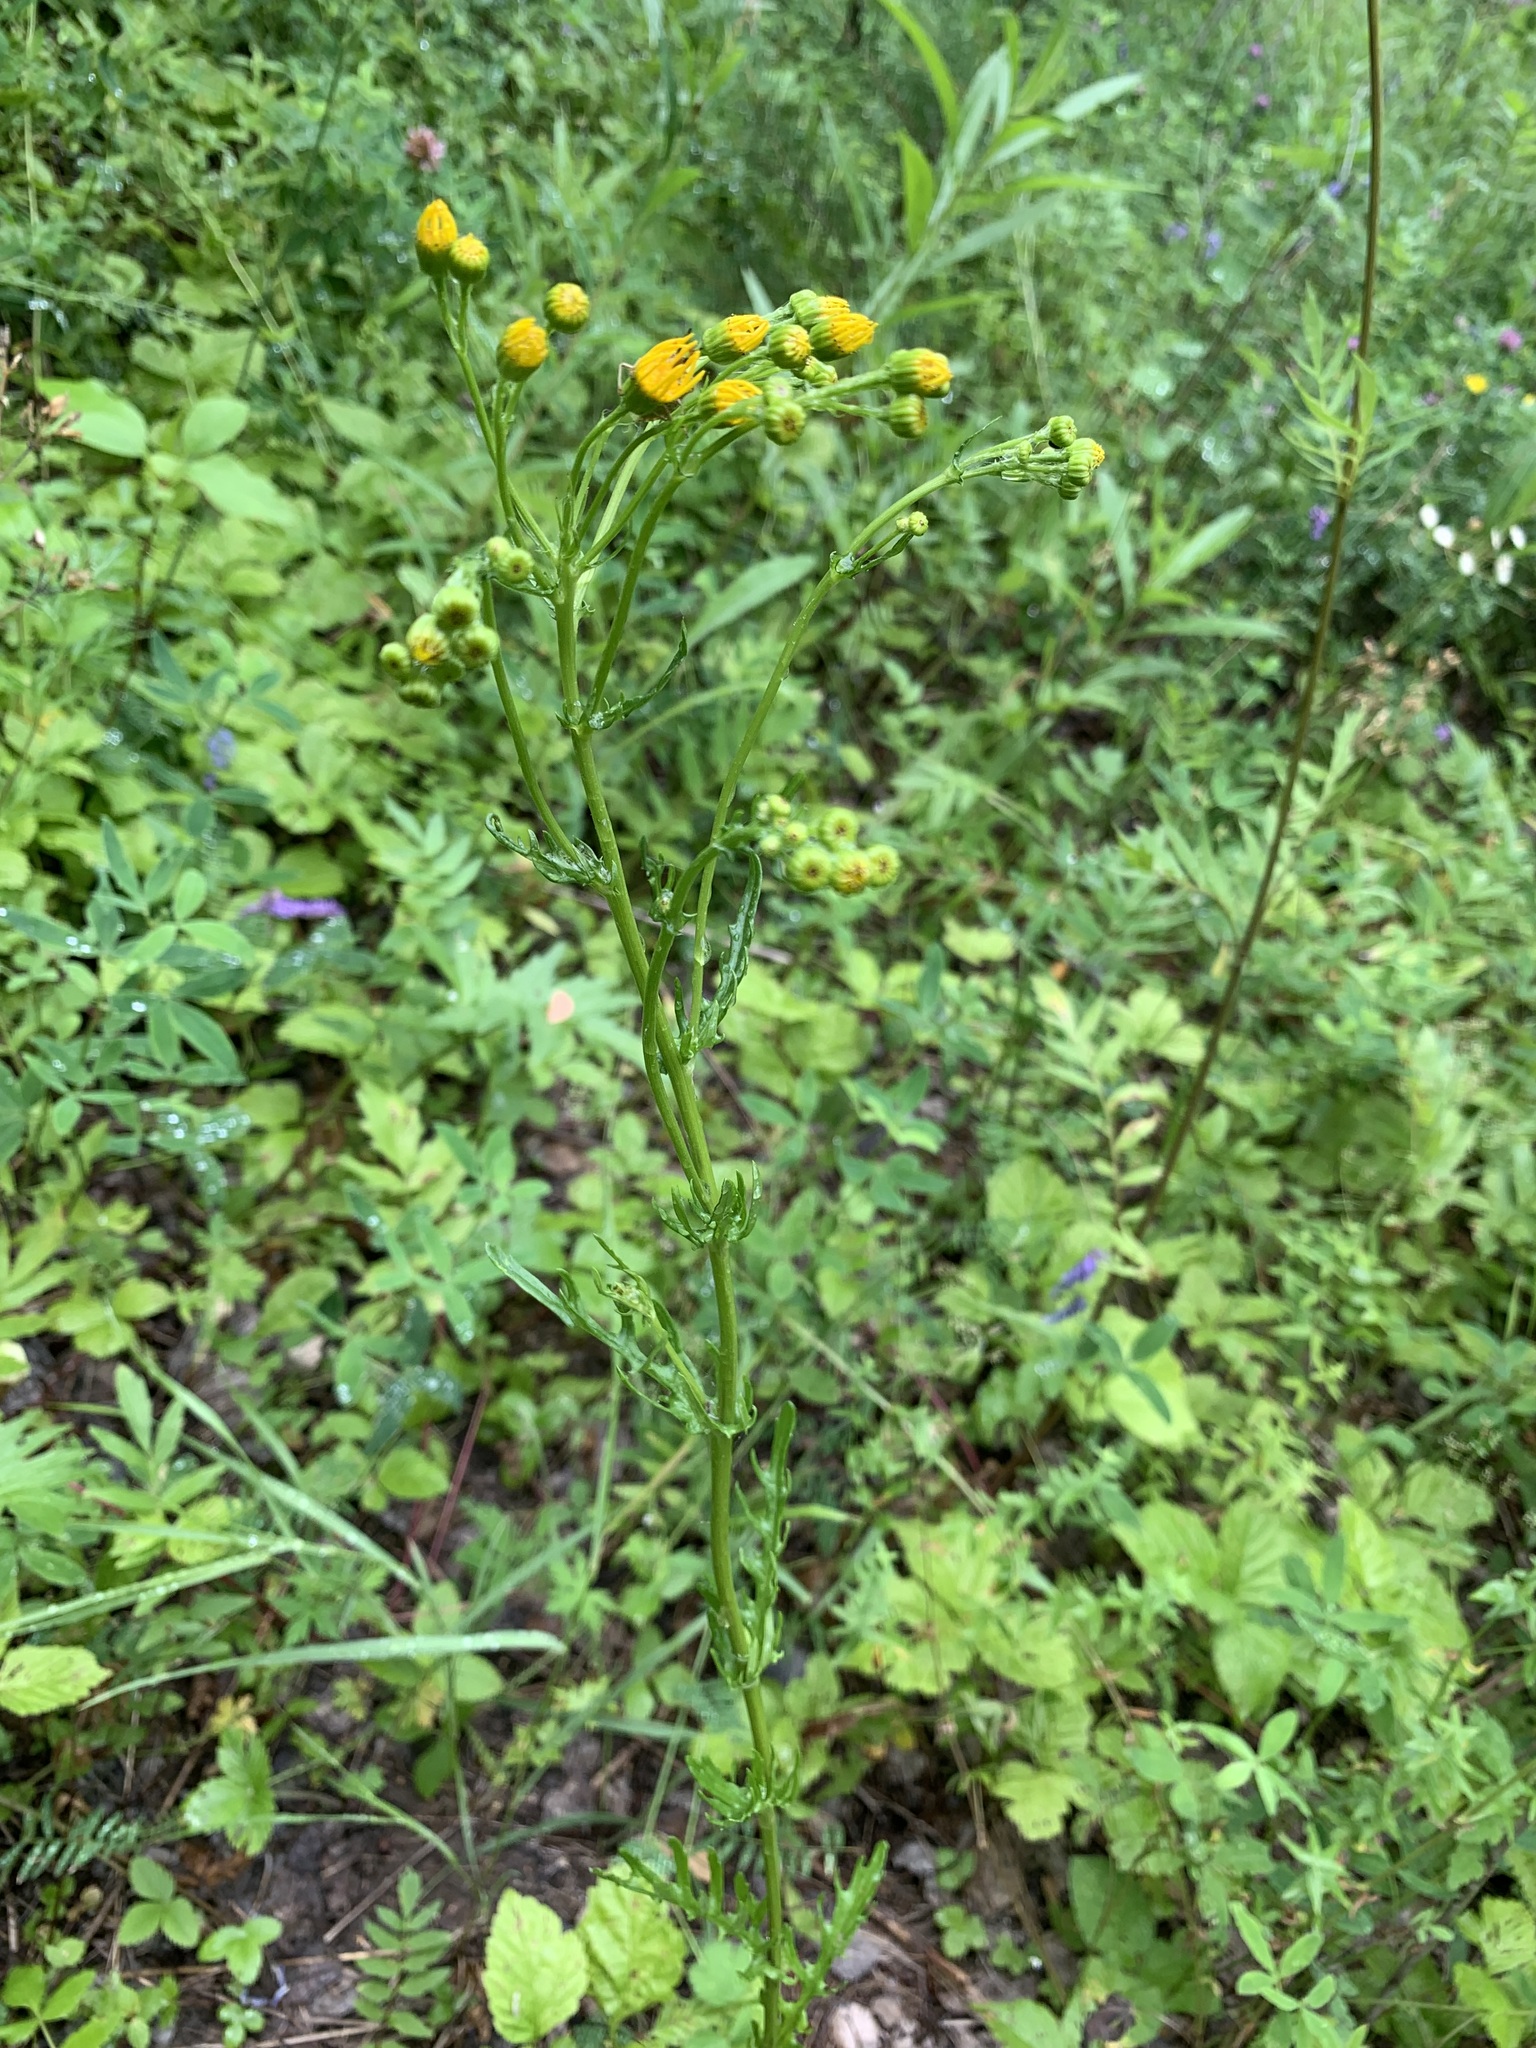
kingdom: Plantae
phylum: Tracheophyta
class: Magnoliopsida
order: Asterales
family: Asteraceae
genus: Jacobaea
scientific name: Jacobaea vulgaris
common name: Stinking willie
